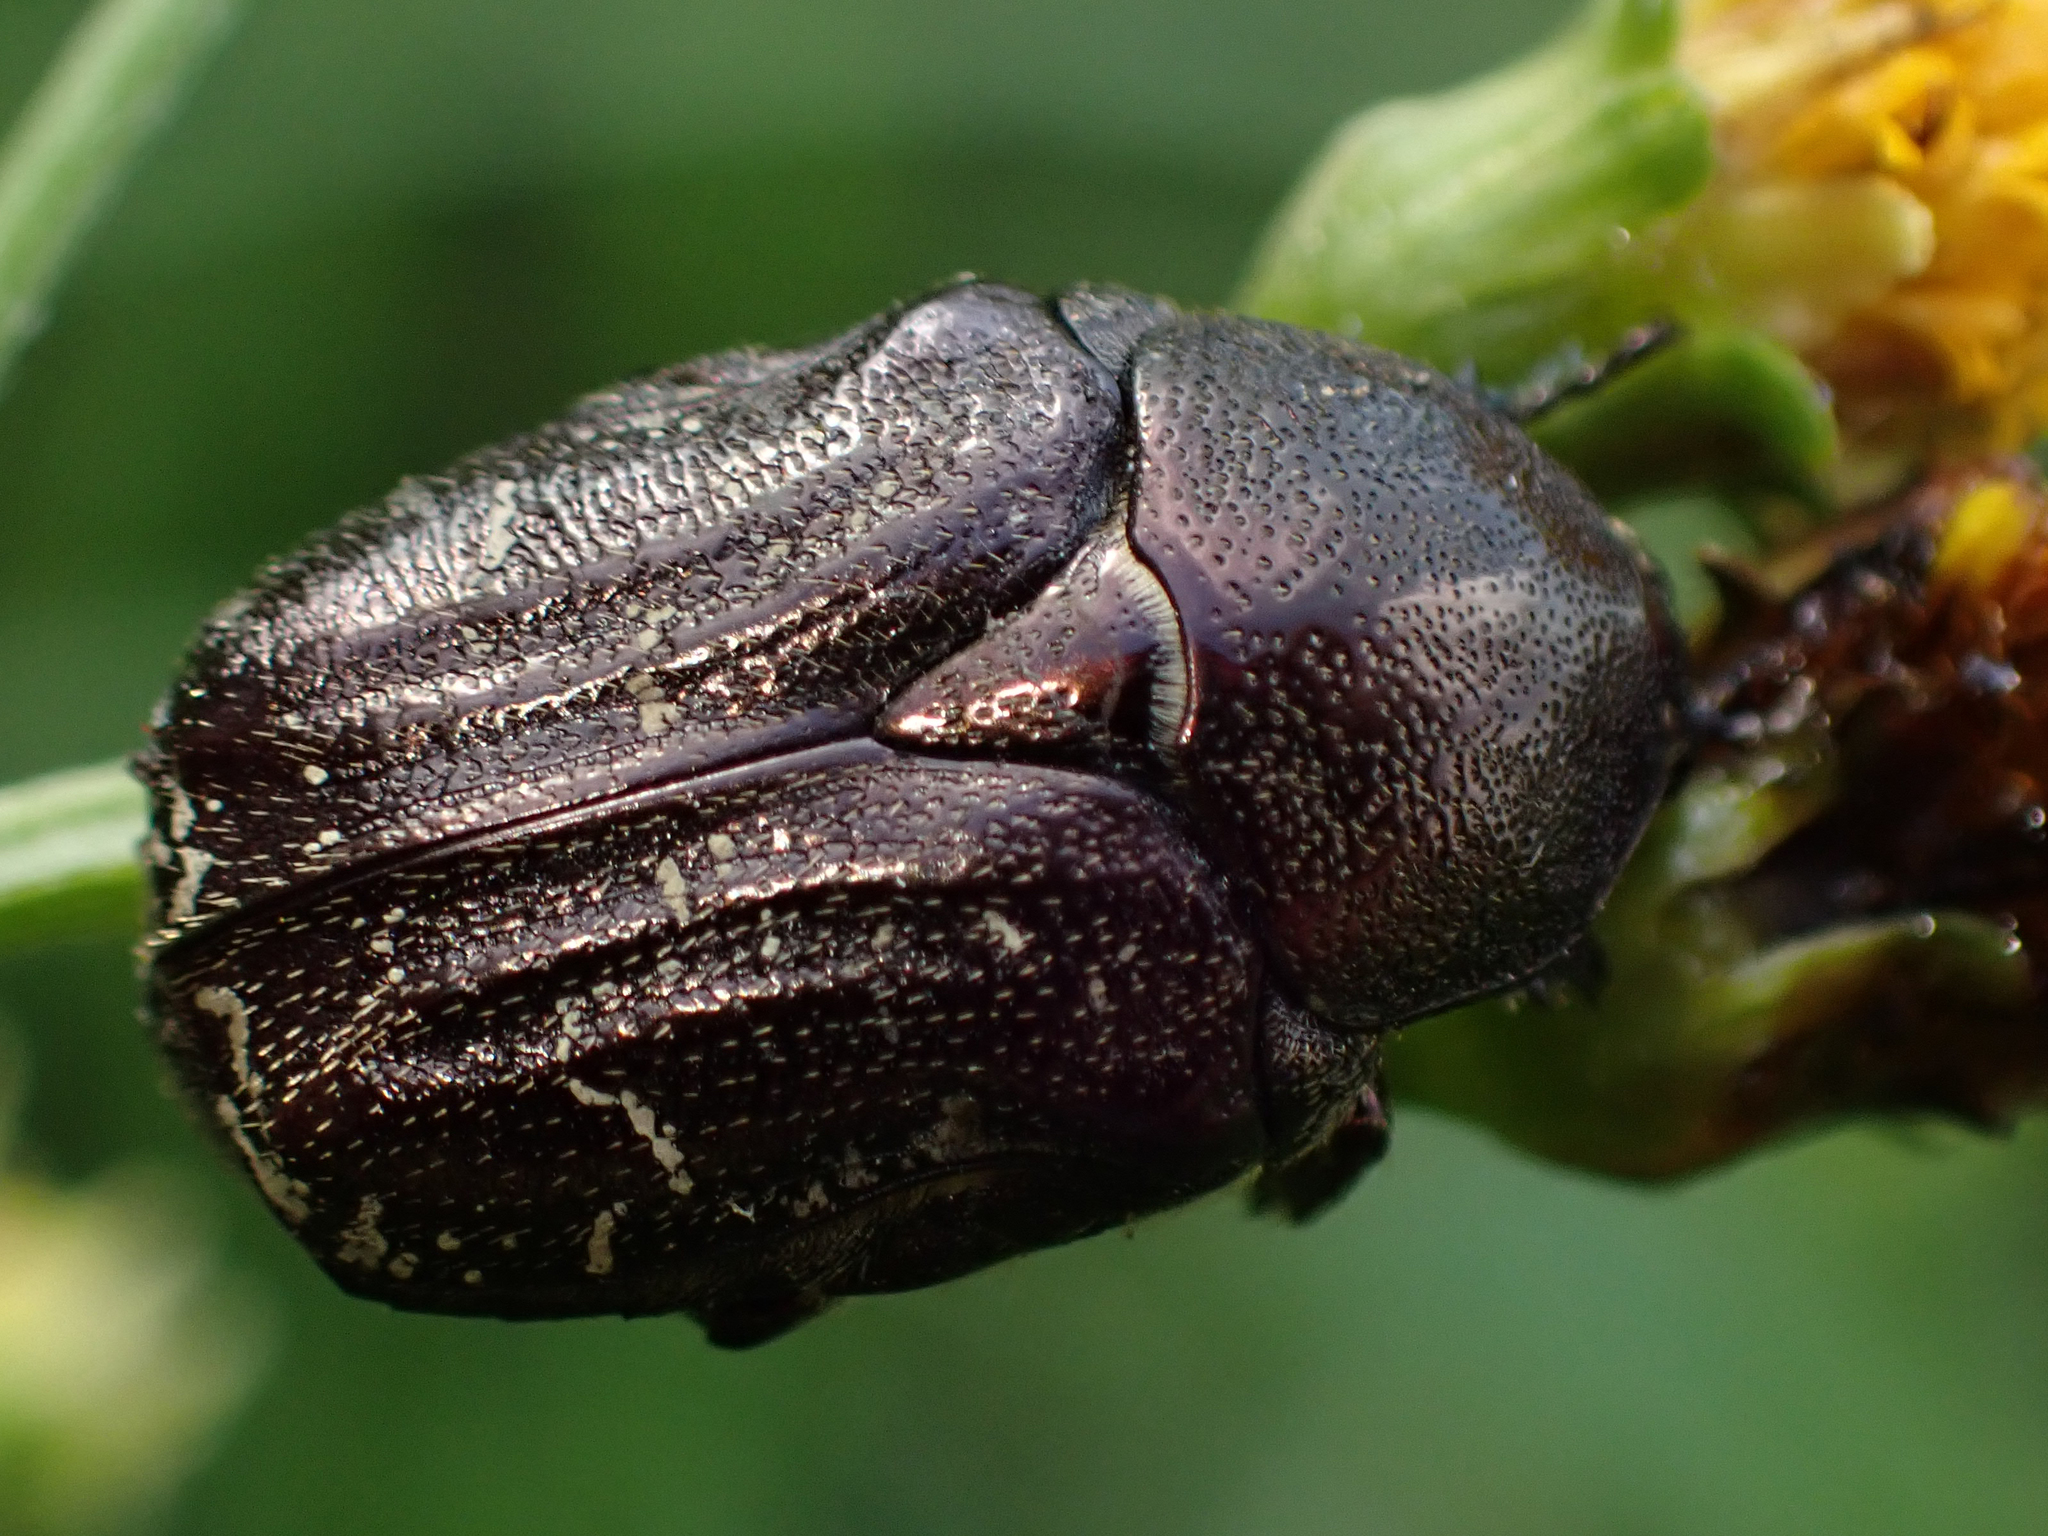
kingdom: Animalia
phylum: Arthropoda
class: Insecta
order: Coleoptera
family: Scarabaeidae
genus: Euphoria
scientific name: Euphoria sepulcralis
